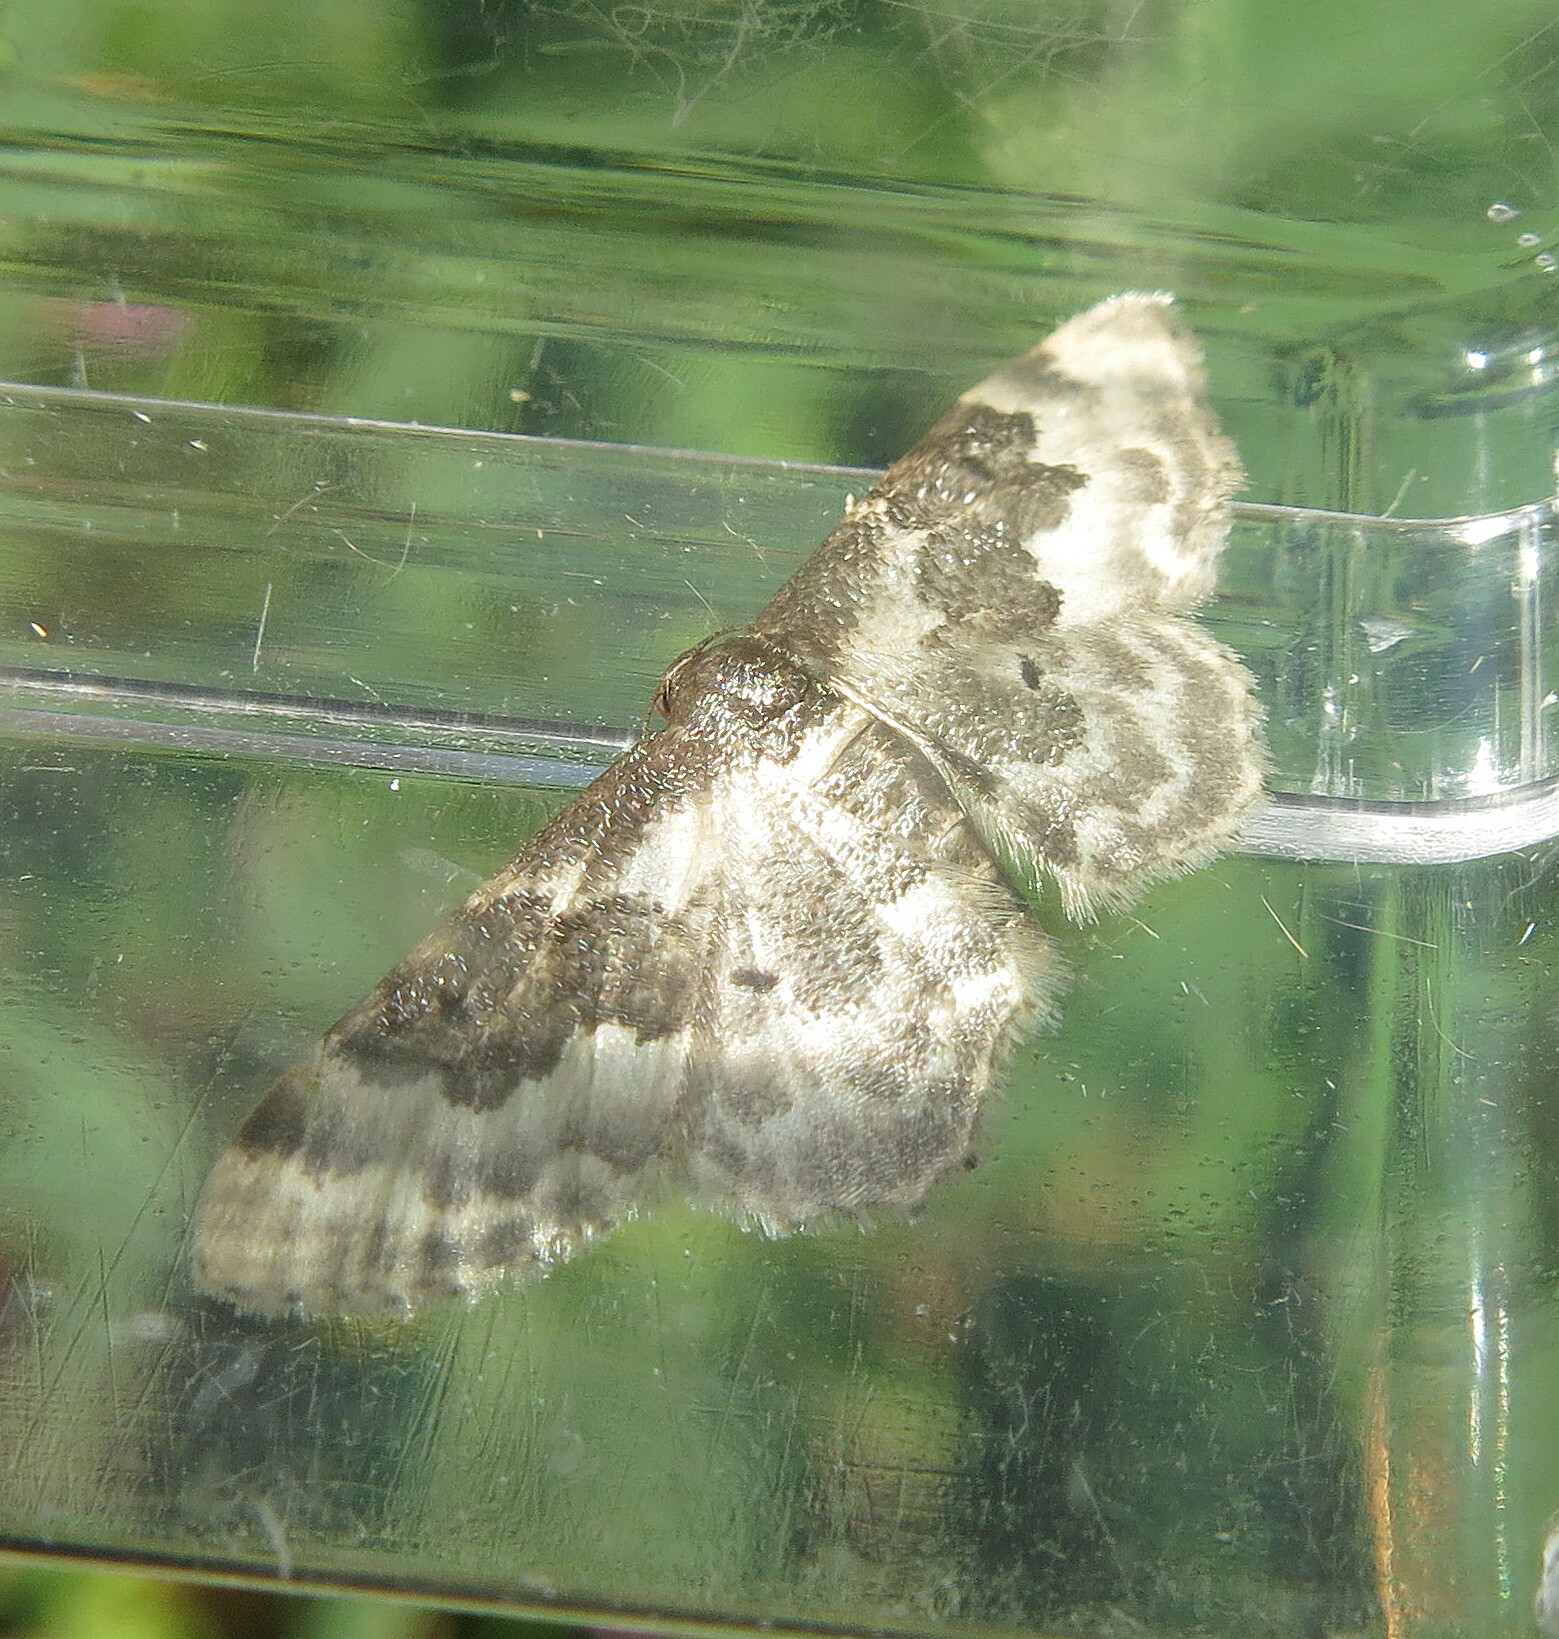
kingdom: Animalia
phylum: Arthropoda
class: Insecta
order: Lepidoptera
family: Geometridae
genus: Idaea
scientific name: Idaea rusticata
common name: Least carpet
